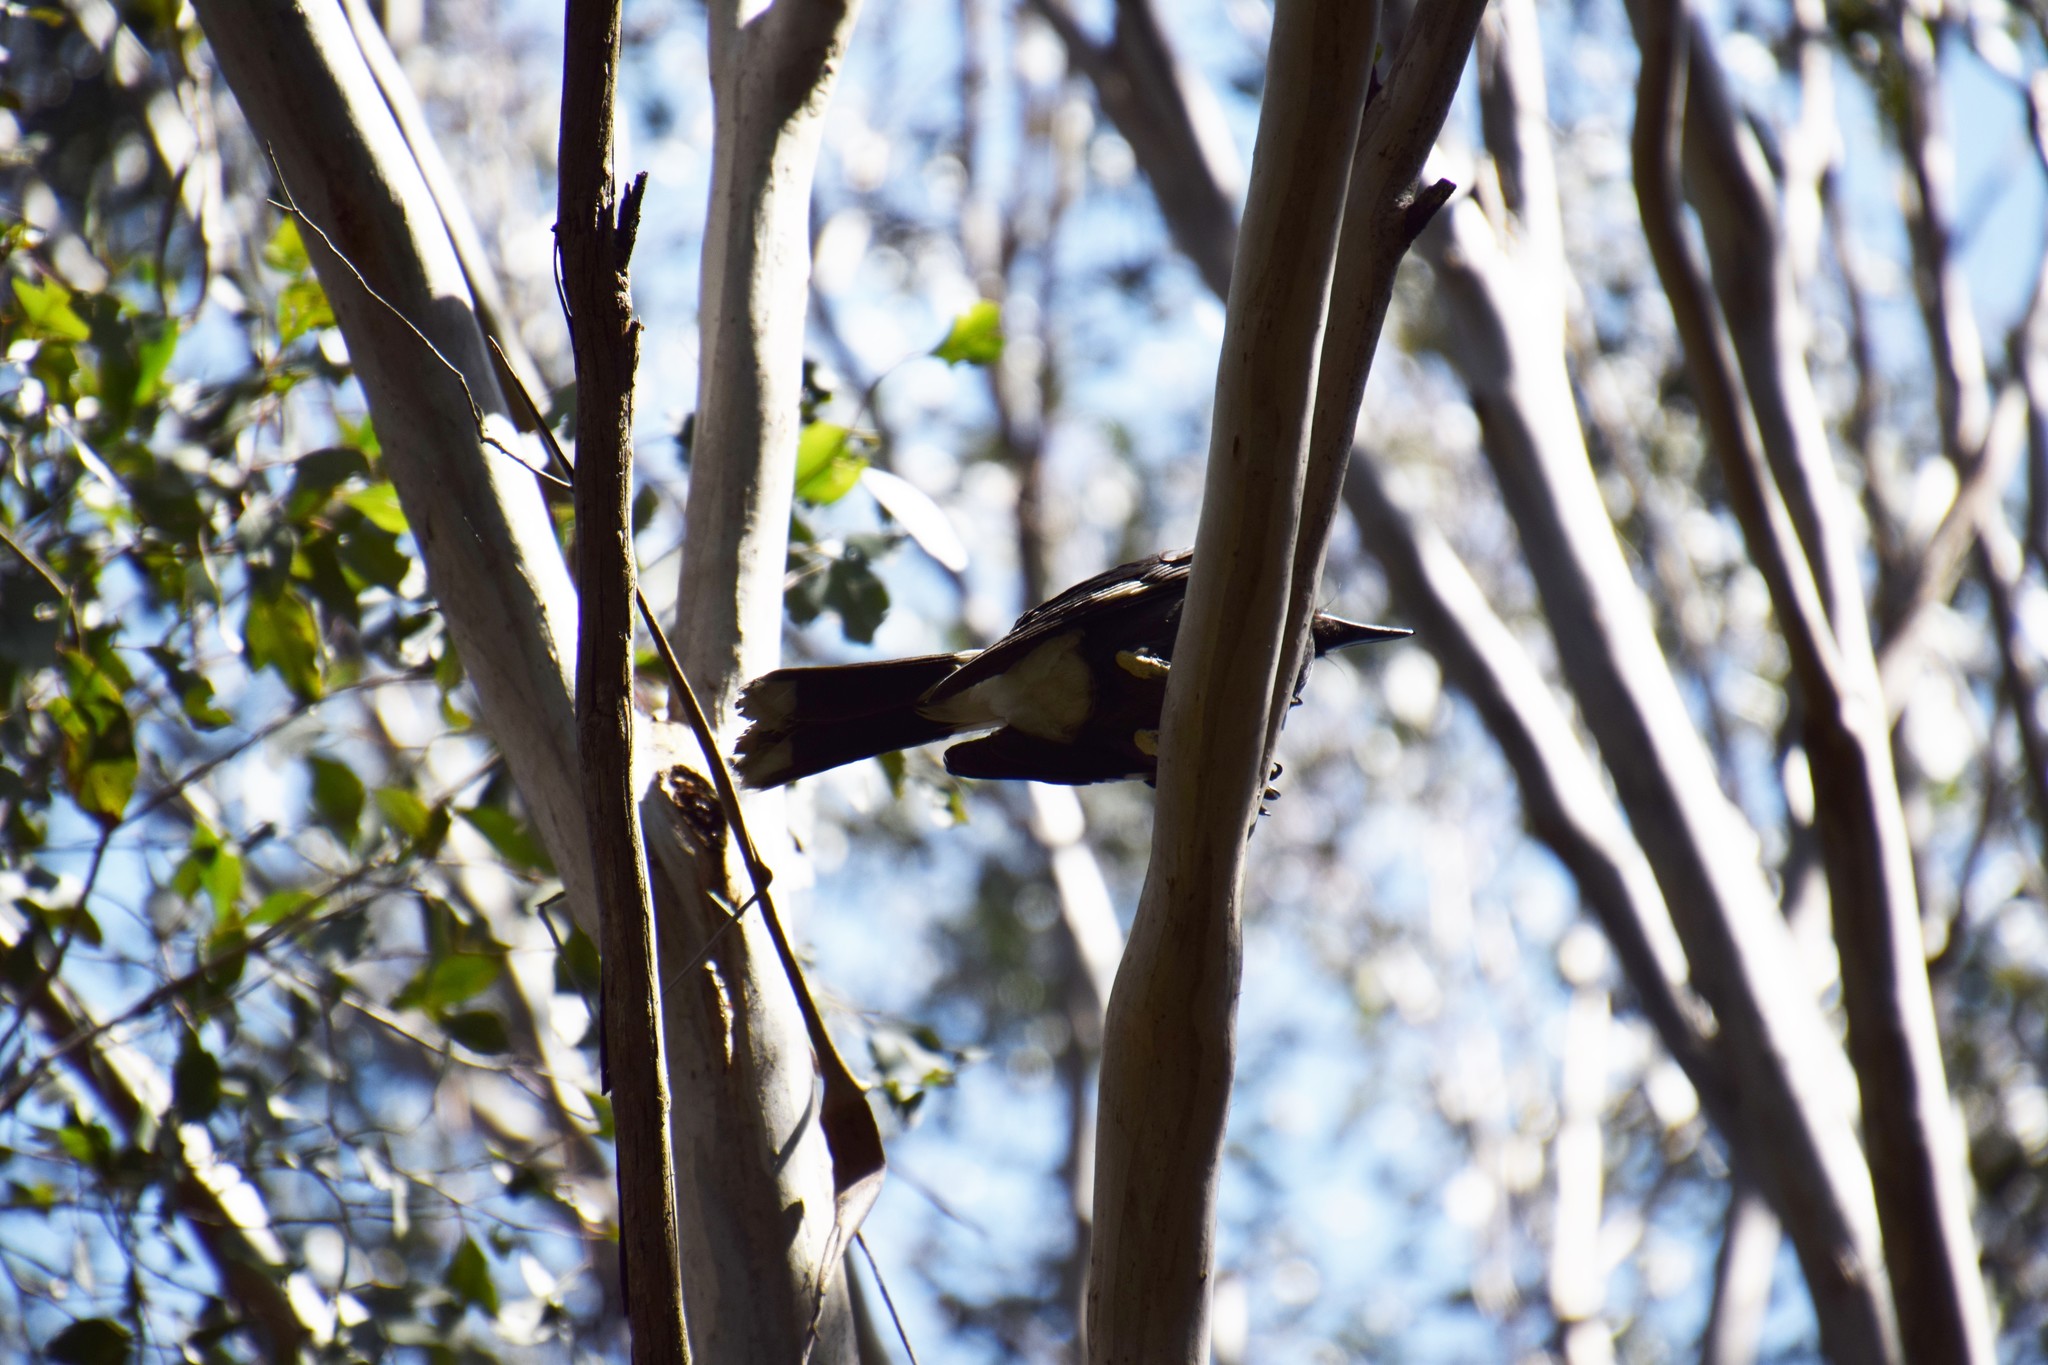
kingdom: Animalia
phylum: Chordata
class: Aves
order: Passeriformes
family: Cracticidae
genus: Strepera
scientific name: Strepera graculina
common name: Pied currawong
